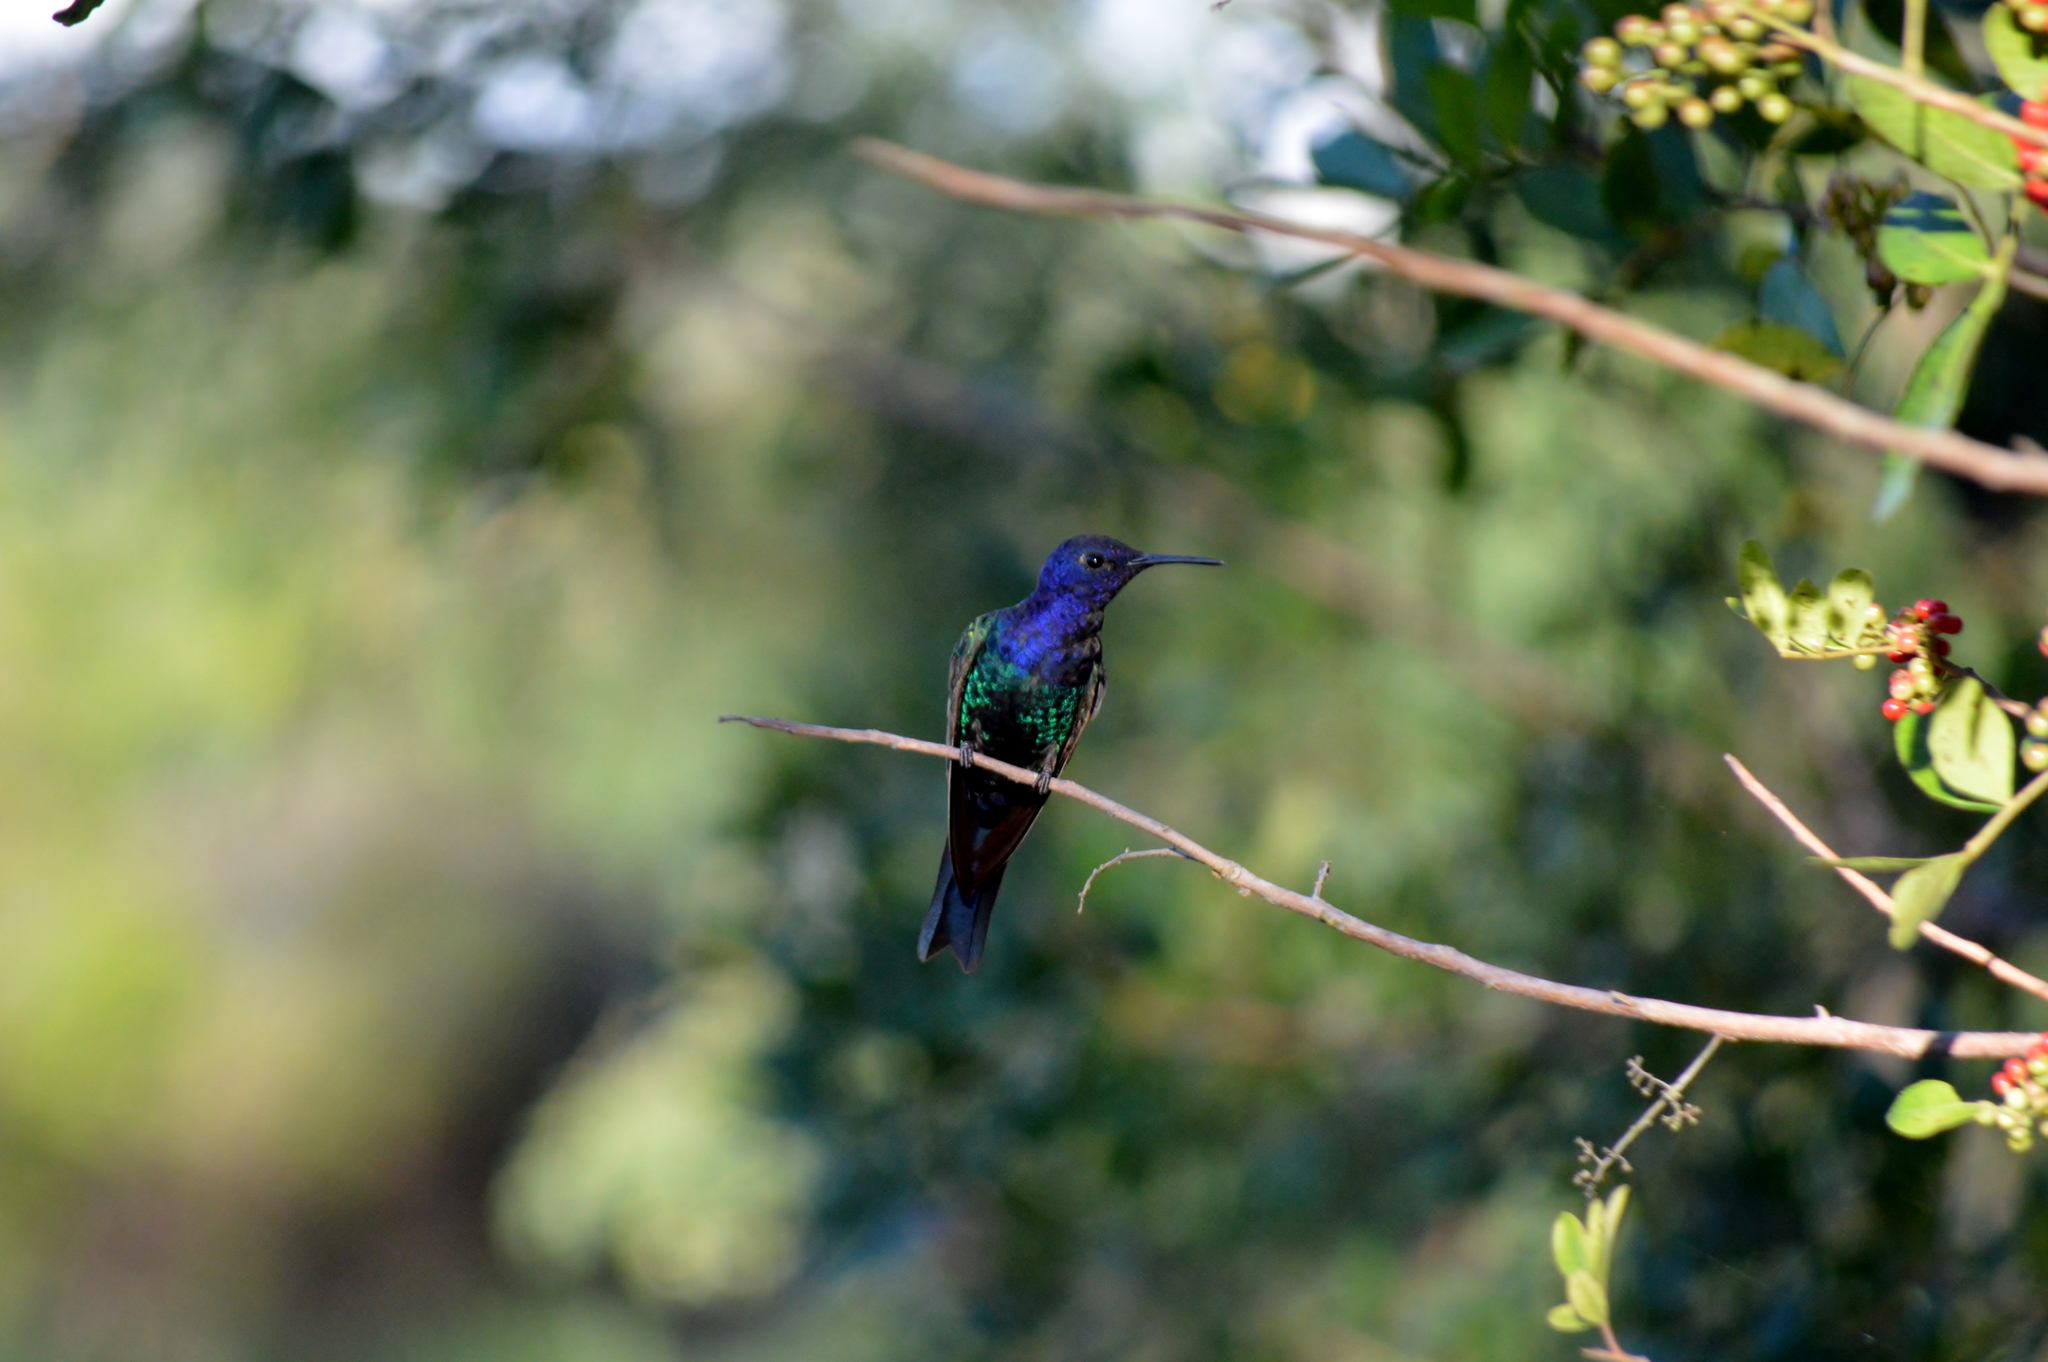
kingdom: Animalia
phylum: Chordata
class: Aves
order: Apodiformes
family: Trochilidae
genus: Eupetomena
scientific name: Eupetomena macroura
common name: Swallow-tailed hummingbird
